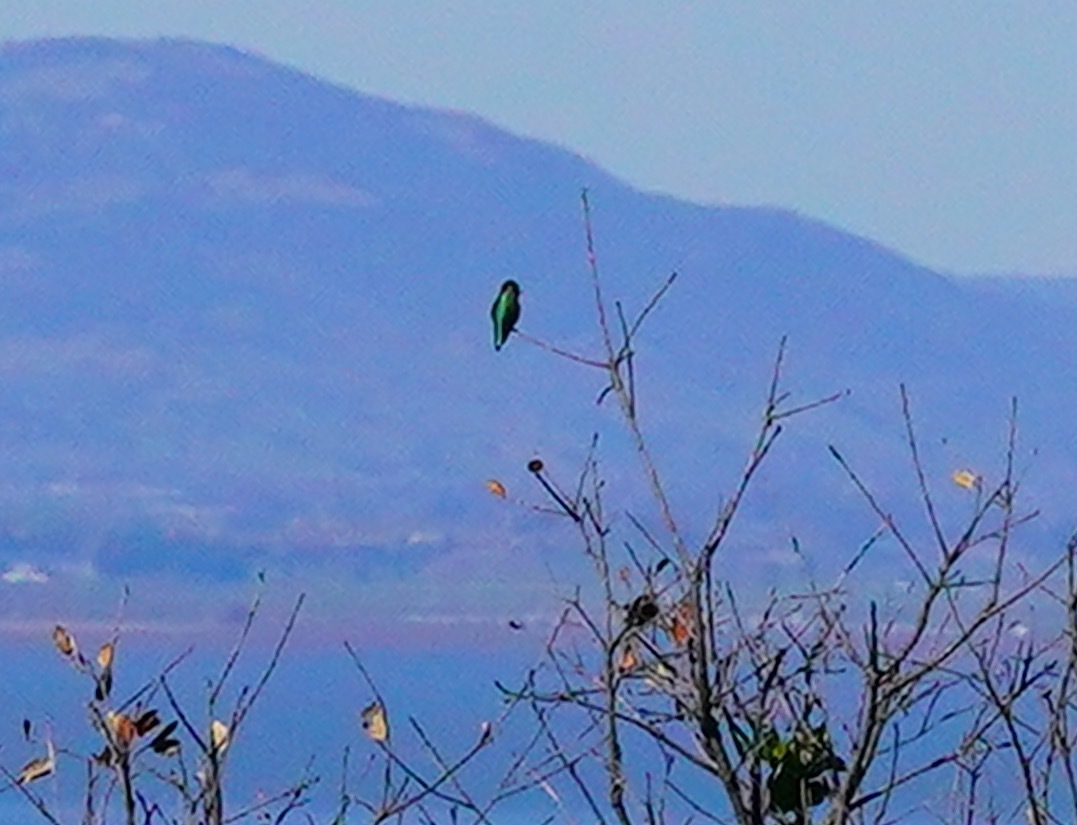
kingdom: Animalia
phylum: Chordata
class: Aves
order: Apodiformes
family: Trochilidae
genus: Calypte
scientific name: Calypte anna
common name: Anna's hummingbird
